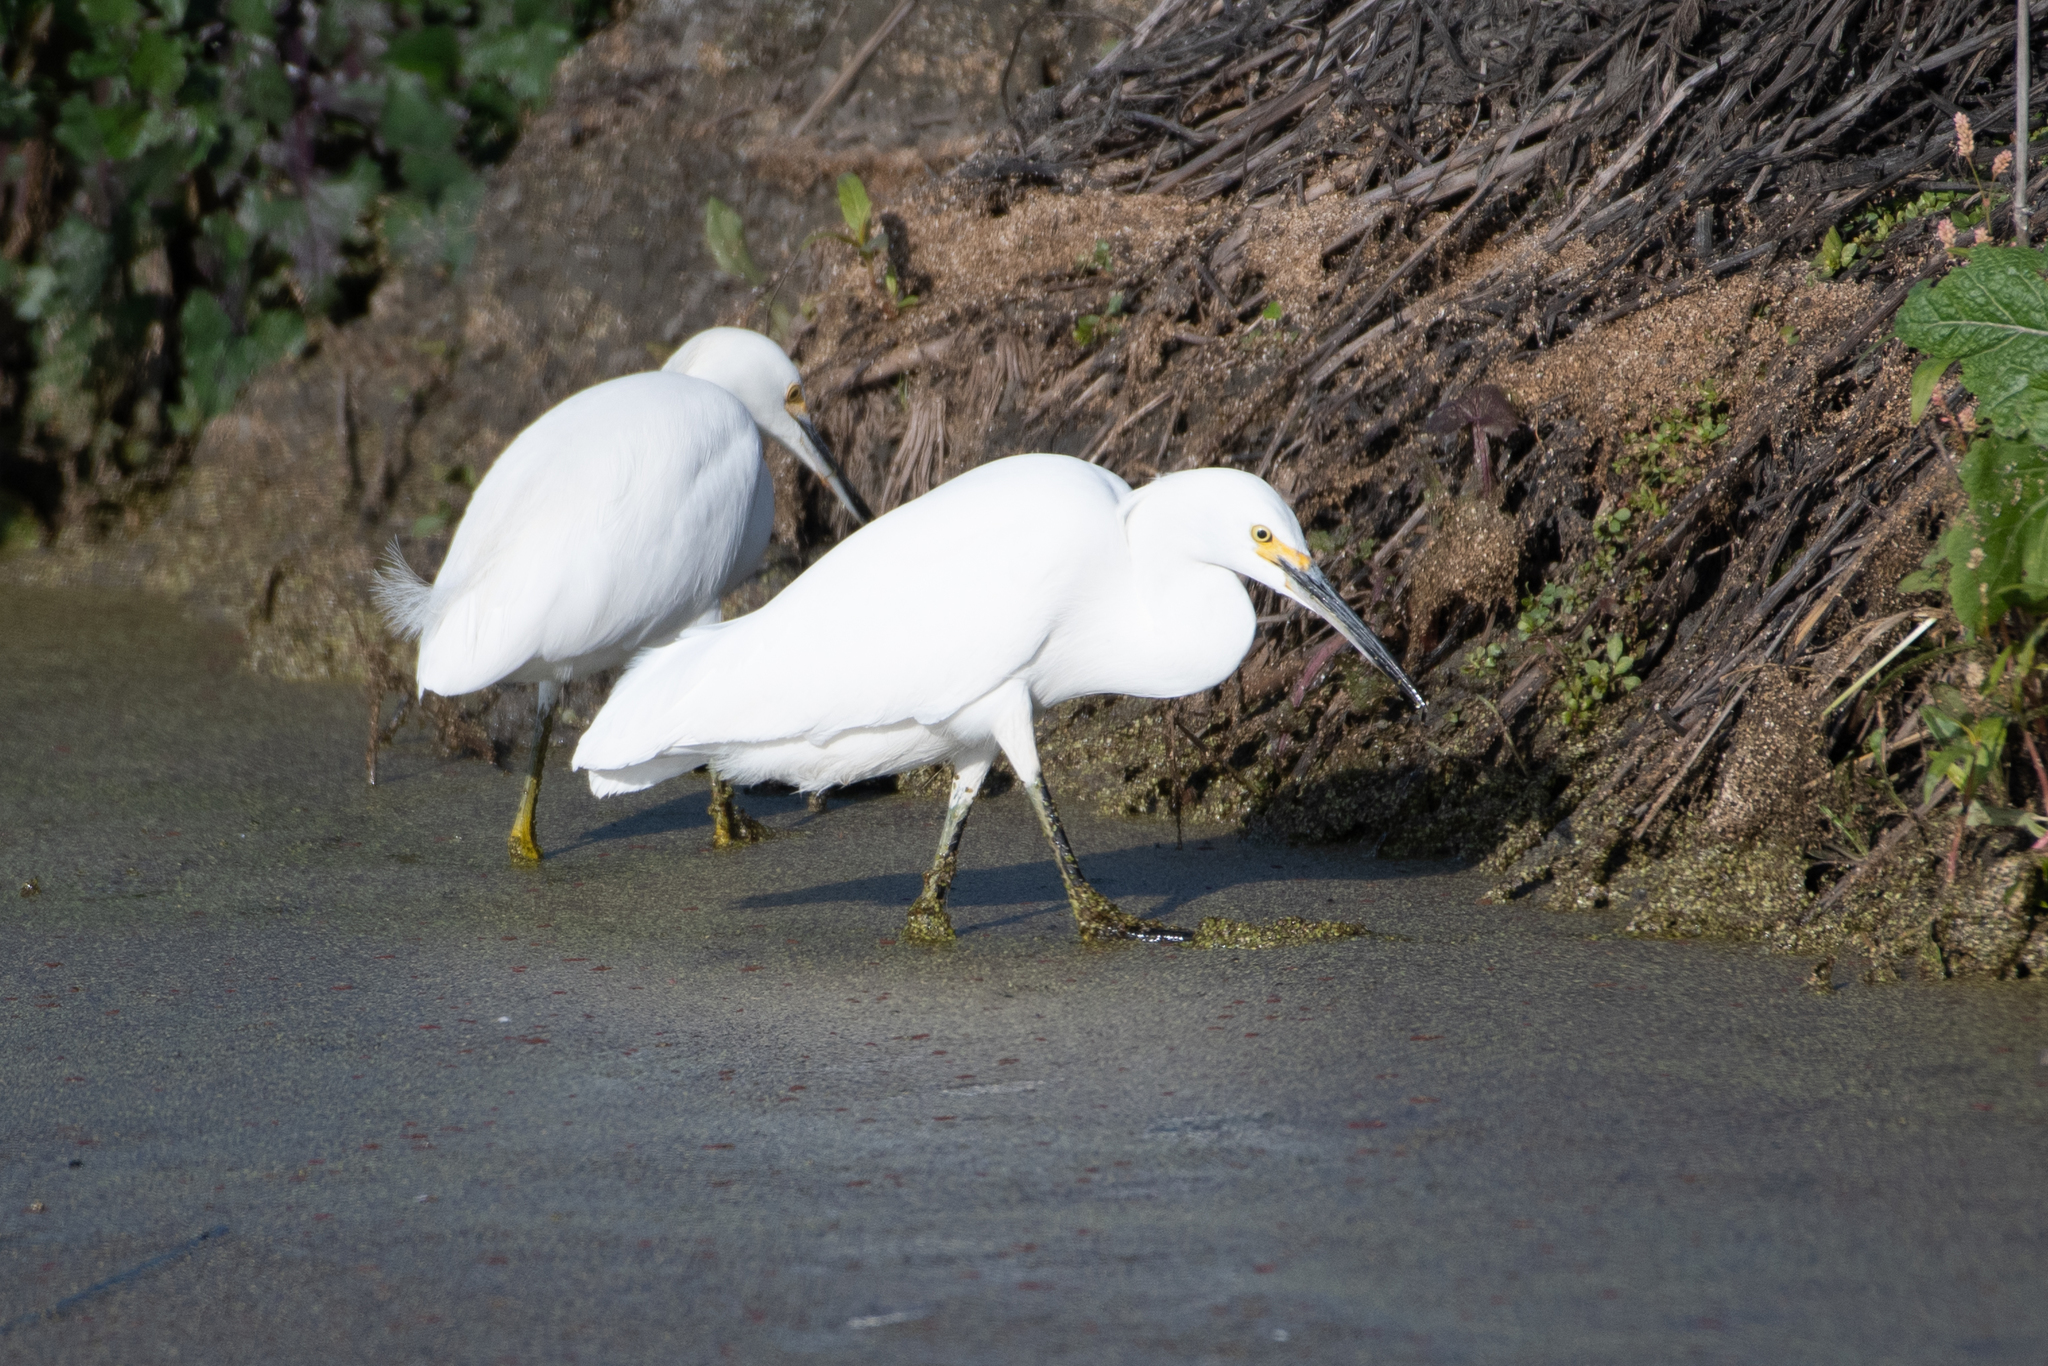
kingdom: Animalia
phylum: Chordata
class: Aves
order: Pelecaniformes
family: Ardeidae
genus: Egretta
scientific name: Egretta thula
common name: Snowy egret
